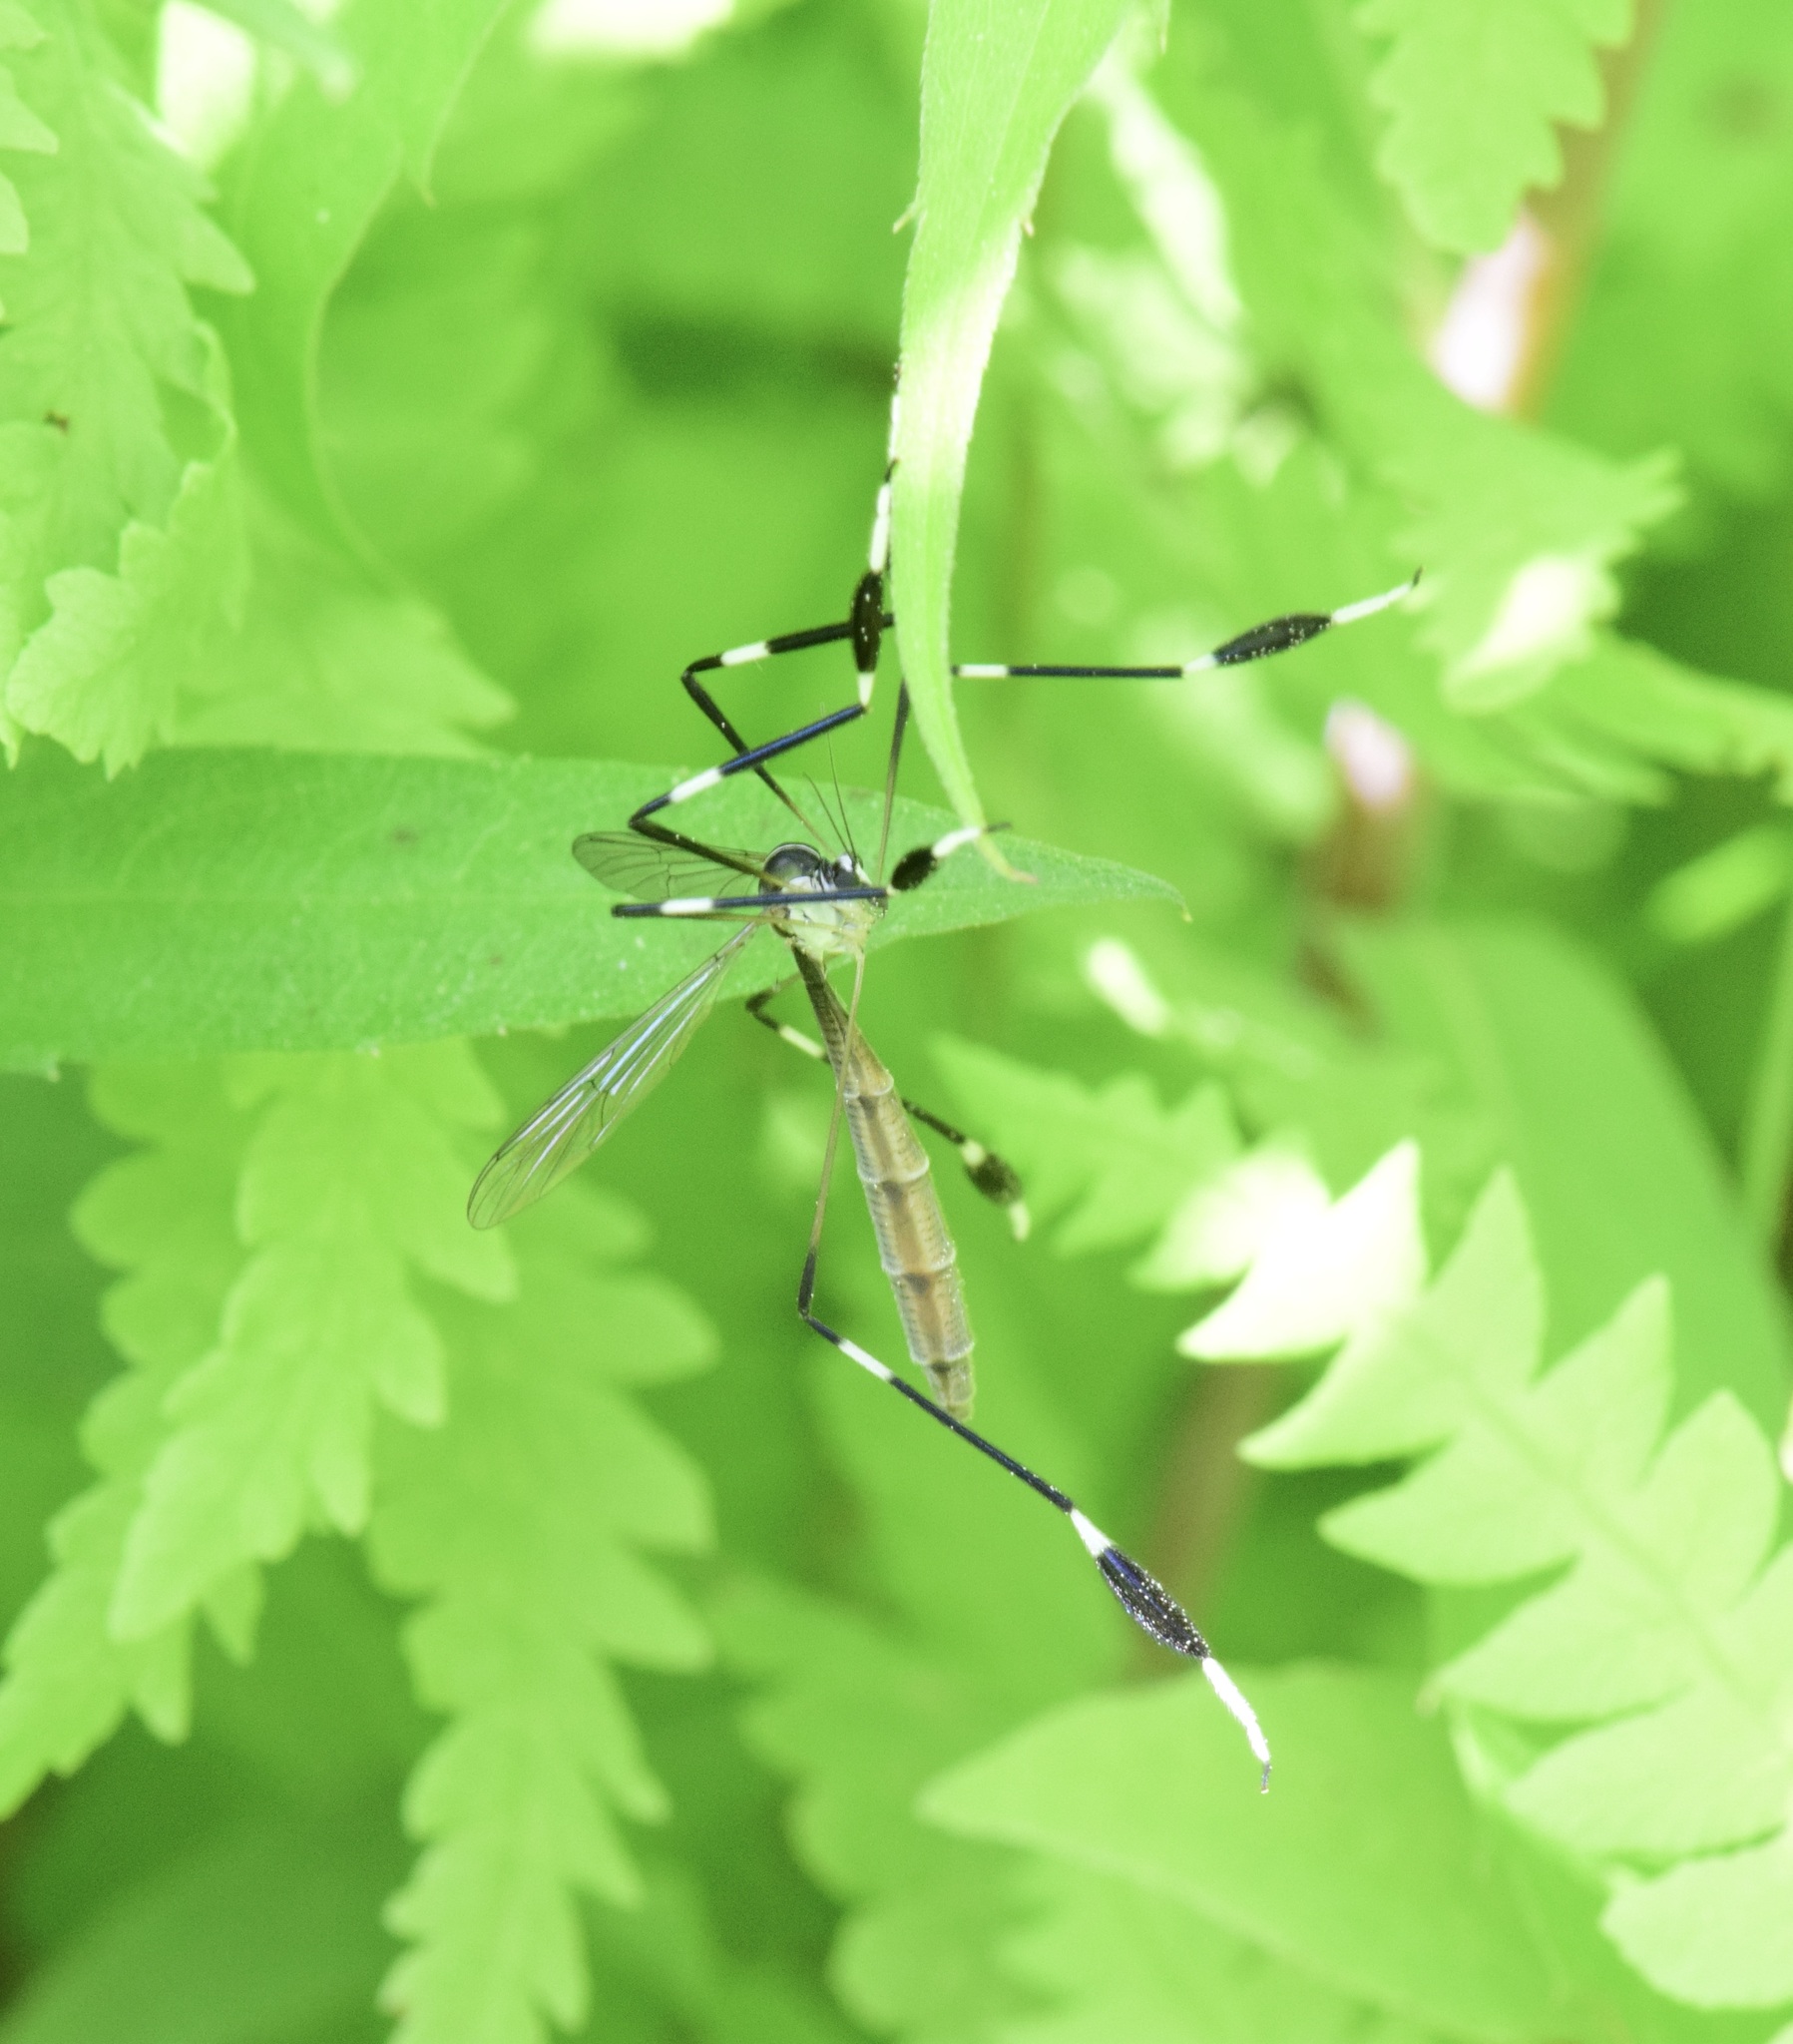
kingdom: Animalia
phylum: Arthropoda
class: Insecta
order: Diptera
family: Ptychopteridae
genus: Bittacomorpha
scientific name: Bittacomorpha clavipes
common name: Eastern phantom crane fly
